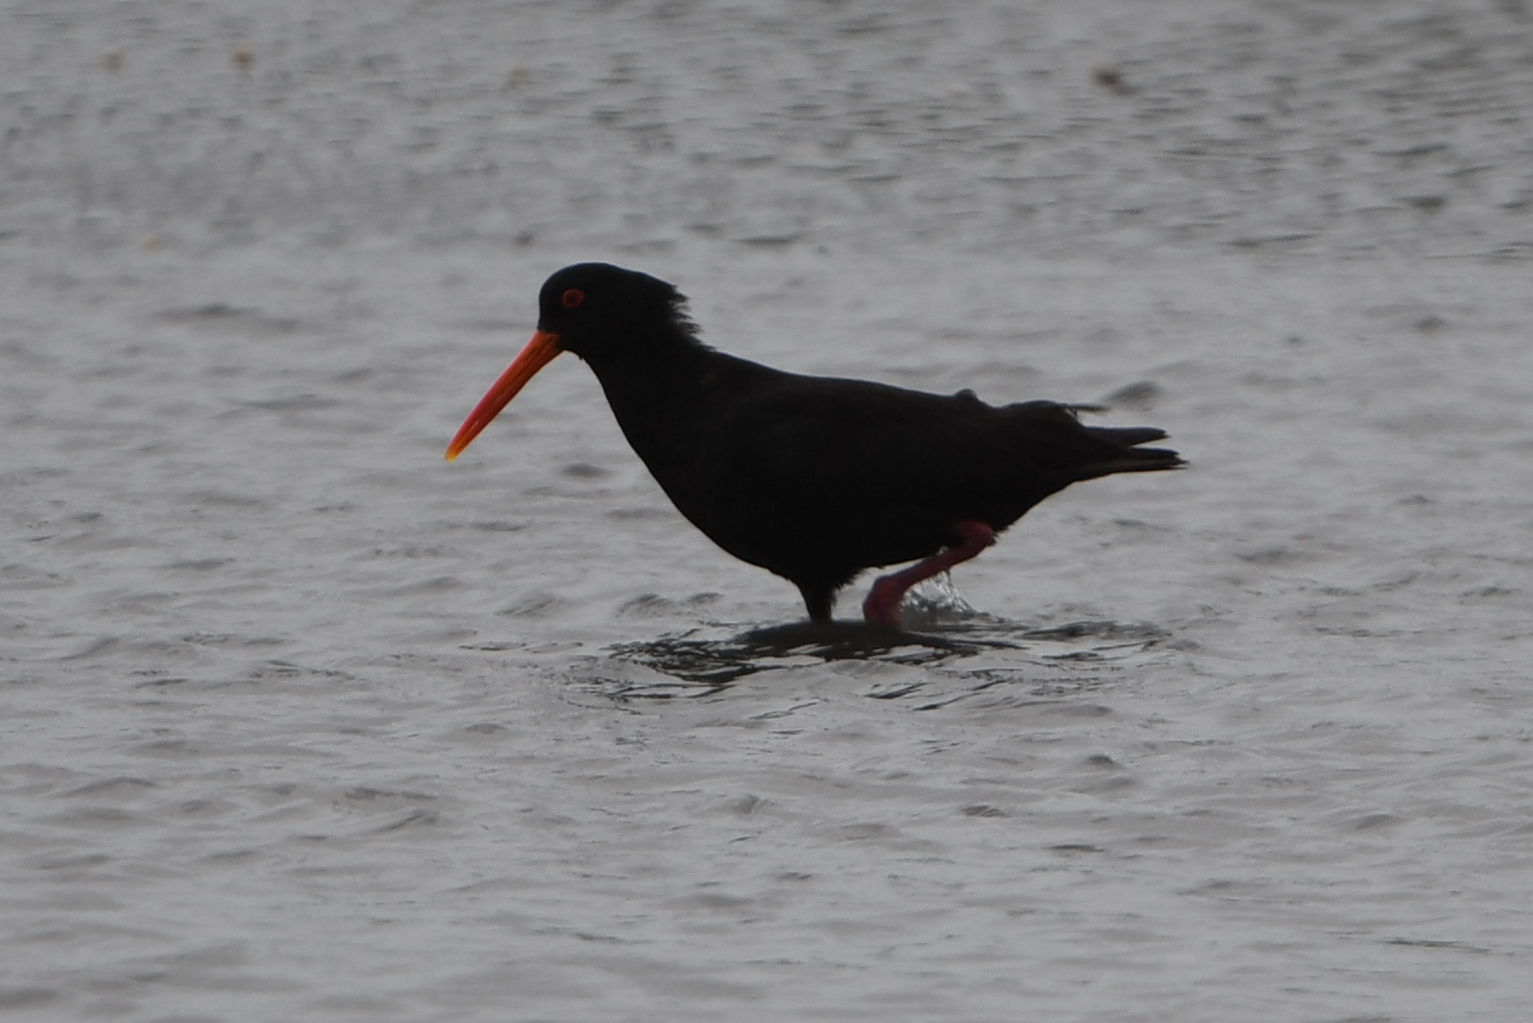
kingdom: Animalia
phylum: Chordata
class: Aves
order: Charadriiformes
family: Haematopodidae
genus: Haematopus
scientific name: Haematopus unicolor
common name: Variable oystercatcher
